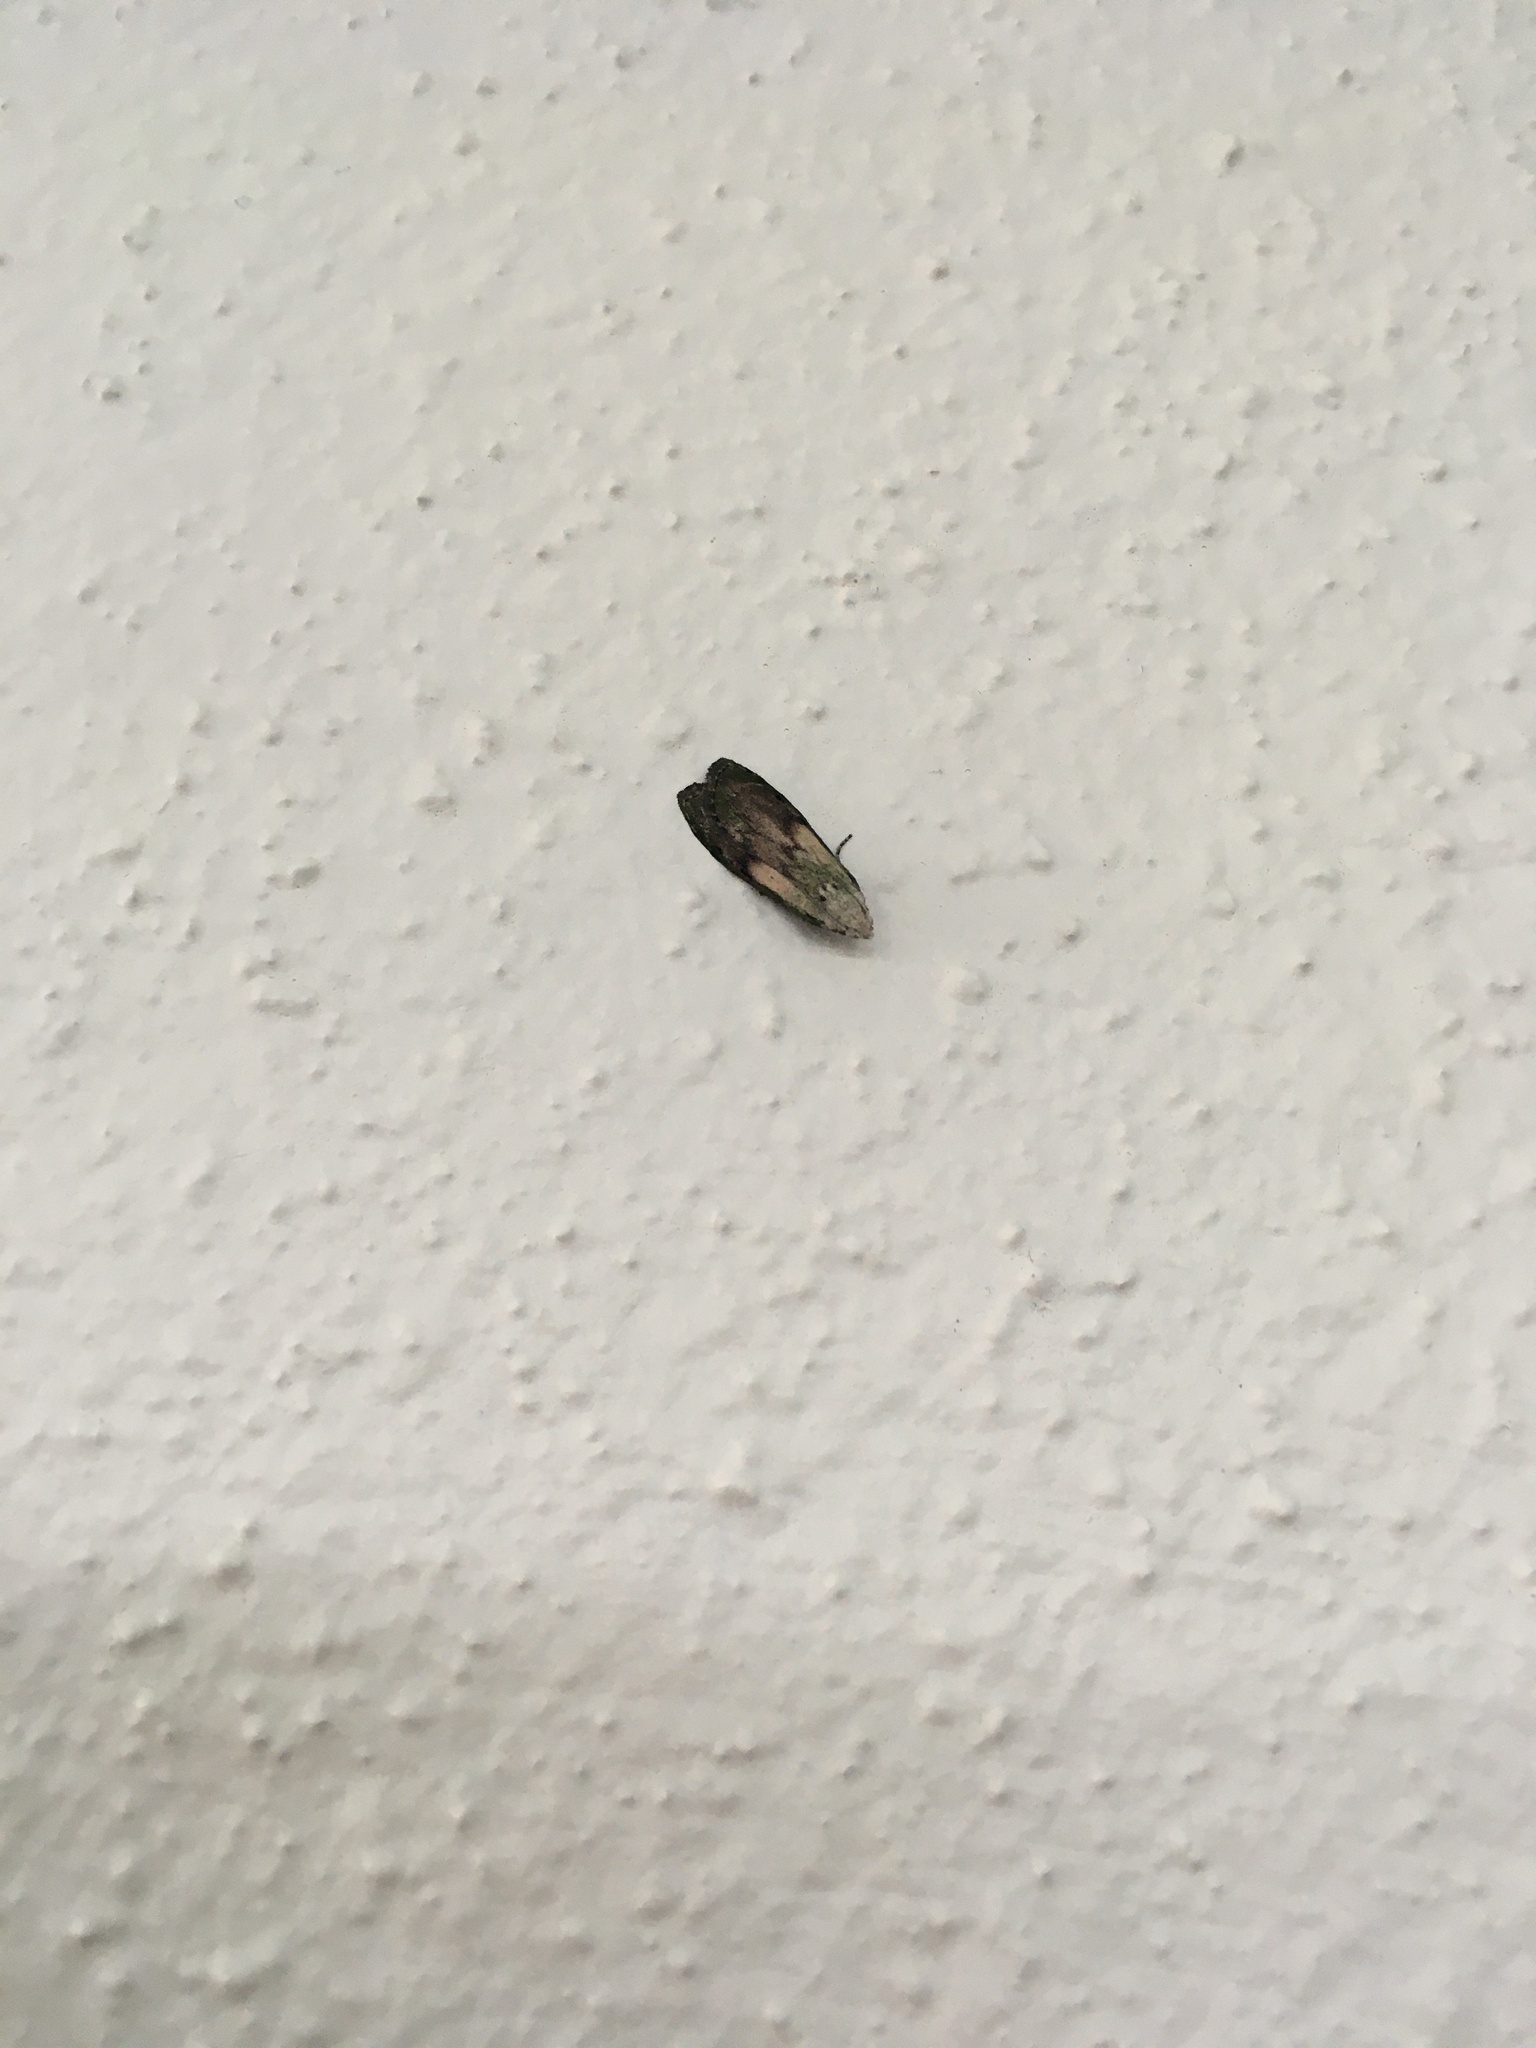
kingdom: Animalia
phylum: Arthropoda
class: Insecta
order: Lepidoptera
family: Pyralidae
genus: Aphomia
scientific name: Aphomia sociella
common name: Bee moth
